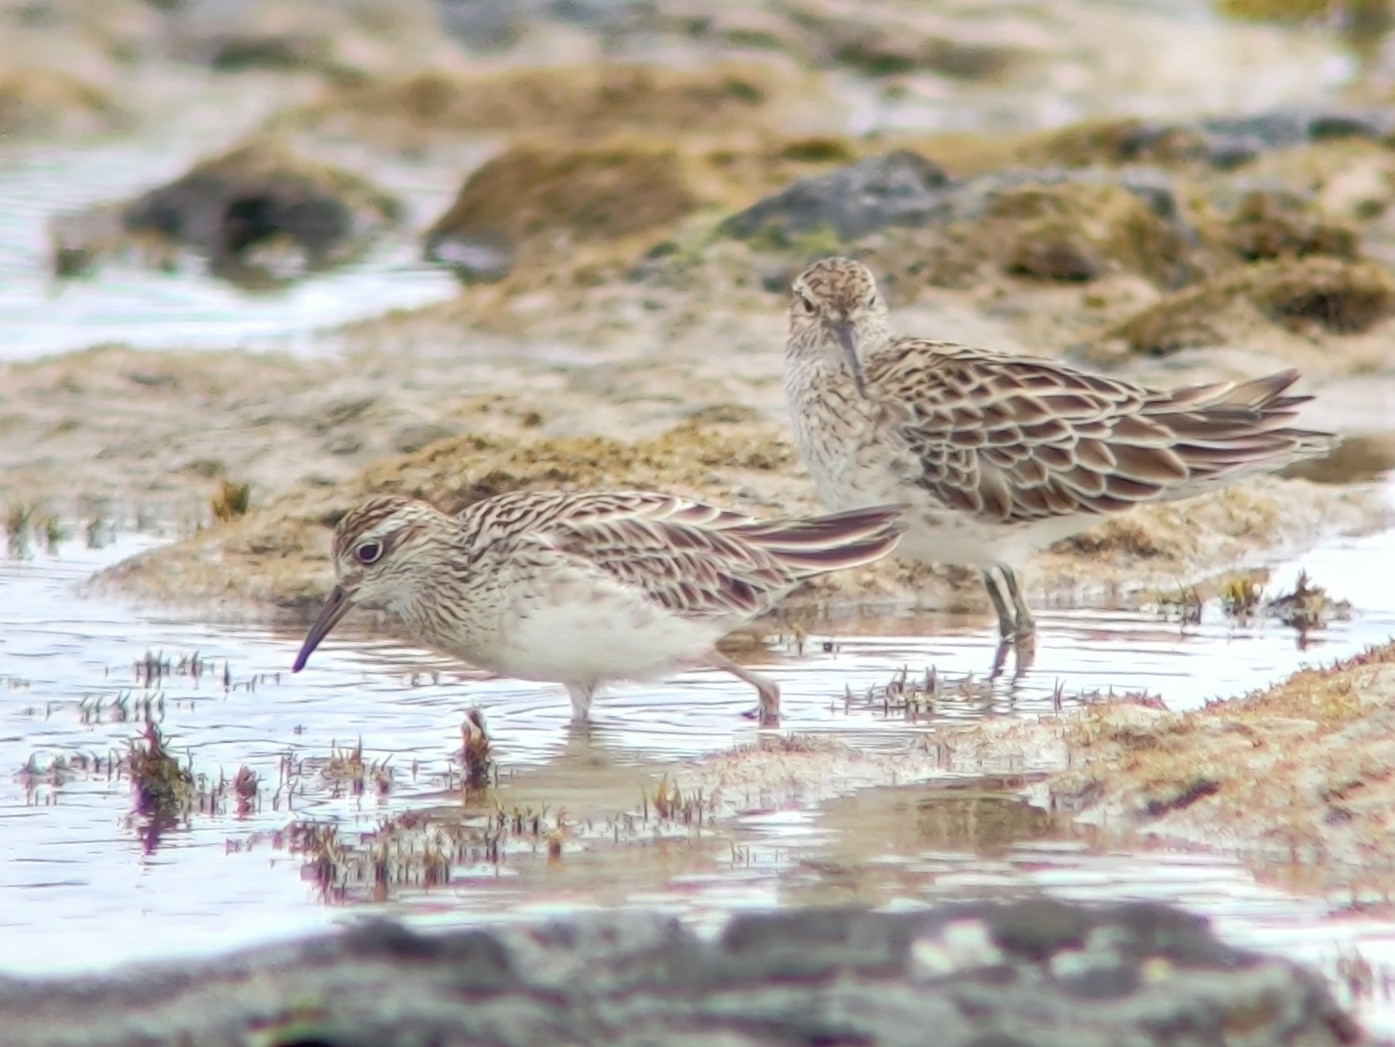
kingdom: Animalia
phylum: Chordata
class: Aves
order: Charadriiformes
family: Scolopacidae
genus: Calidris
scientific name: Calidris acuminata
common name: Sharp-tailed sandpiper
